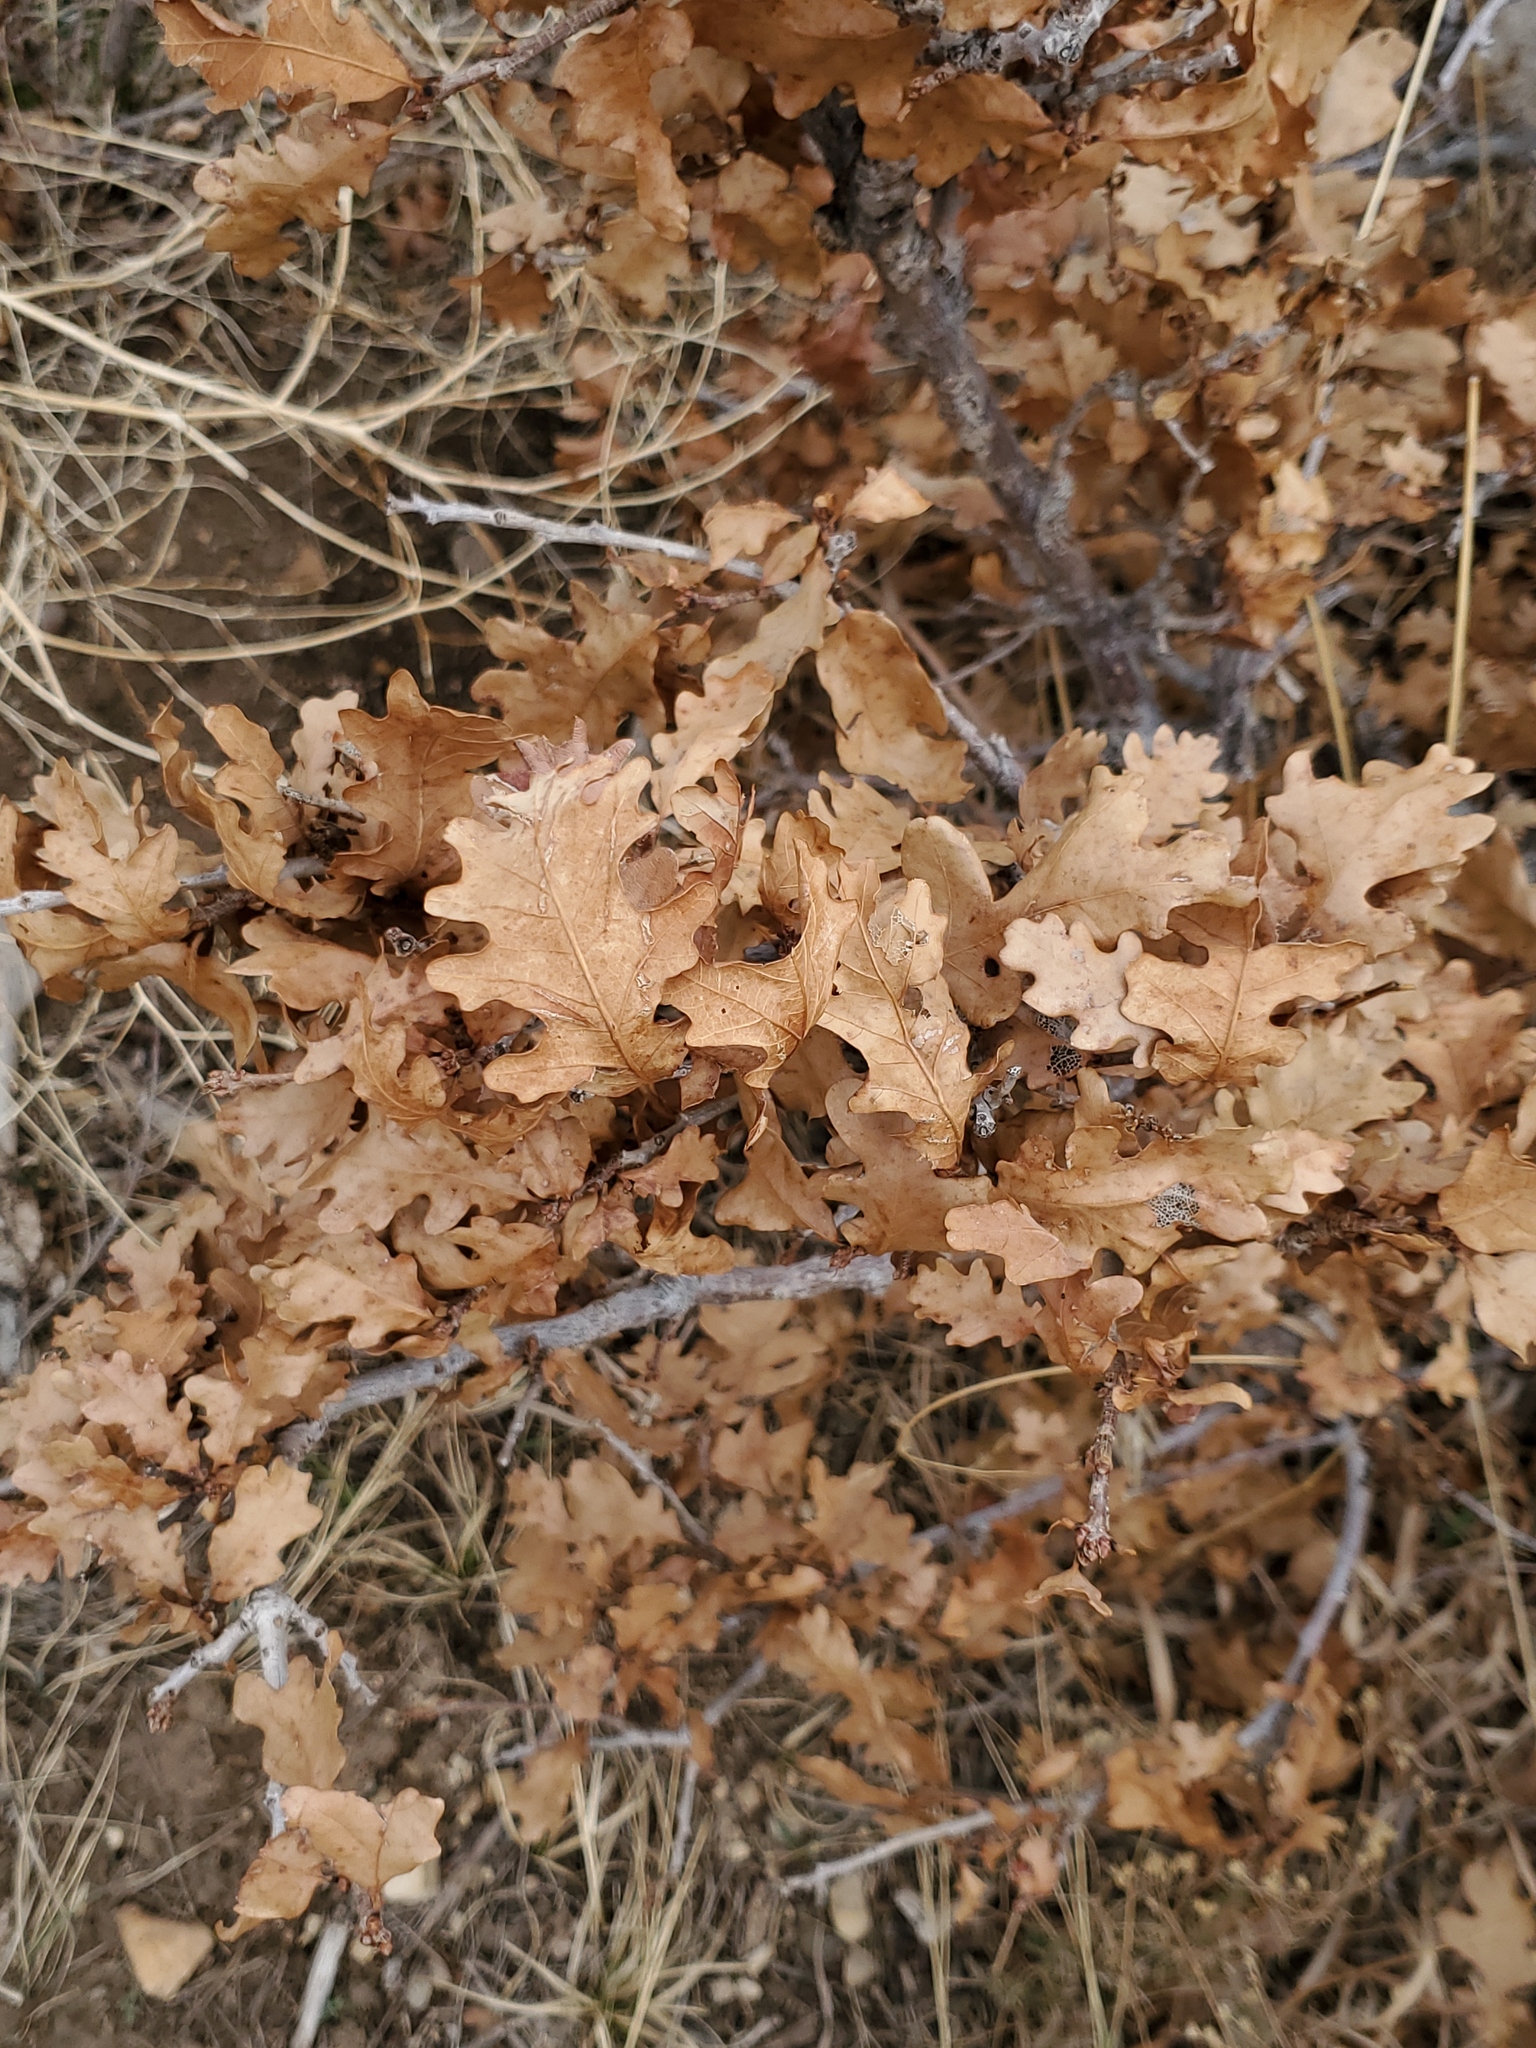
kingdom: Plantae
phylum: Tracheophyta
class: Magnoliopsida
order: Fagales
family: Fagaceae
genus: Quercus
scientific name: Quercus gambelii
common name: Gambel oak
